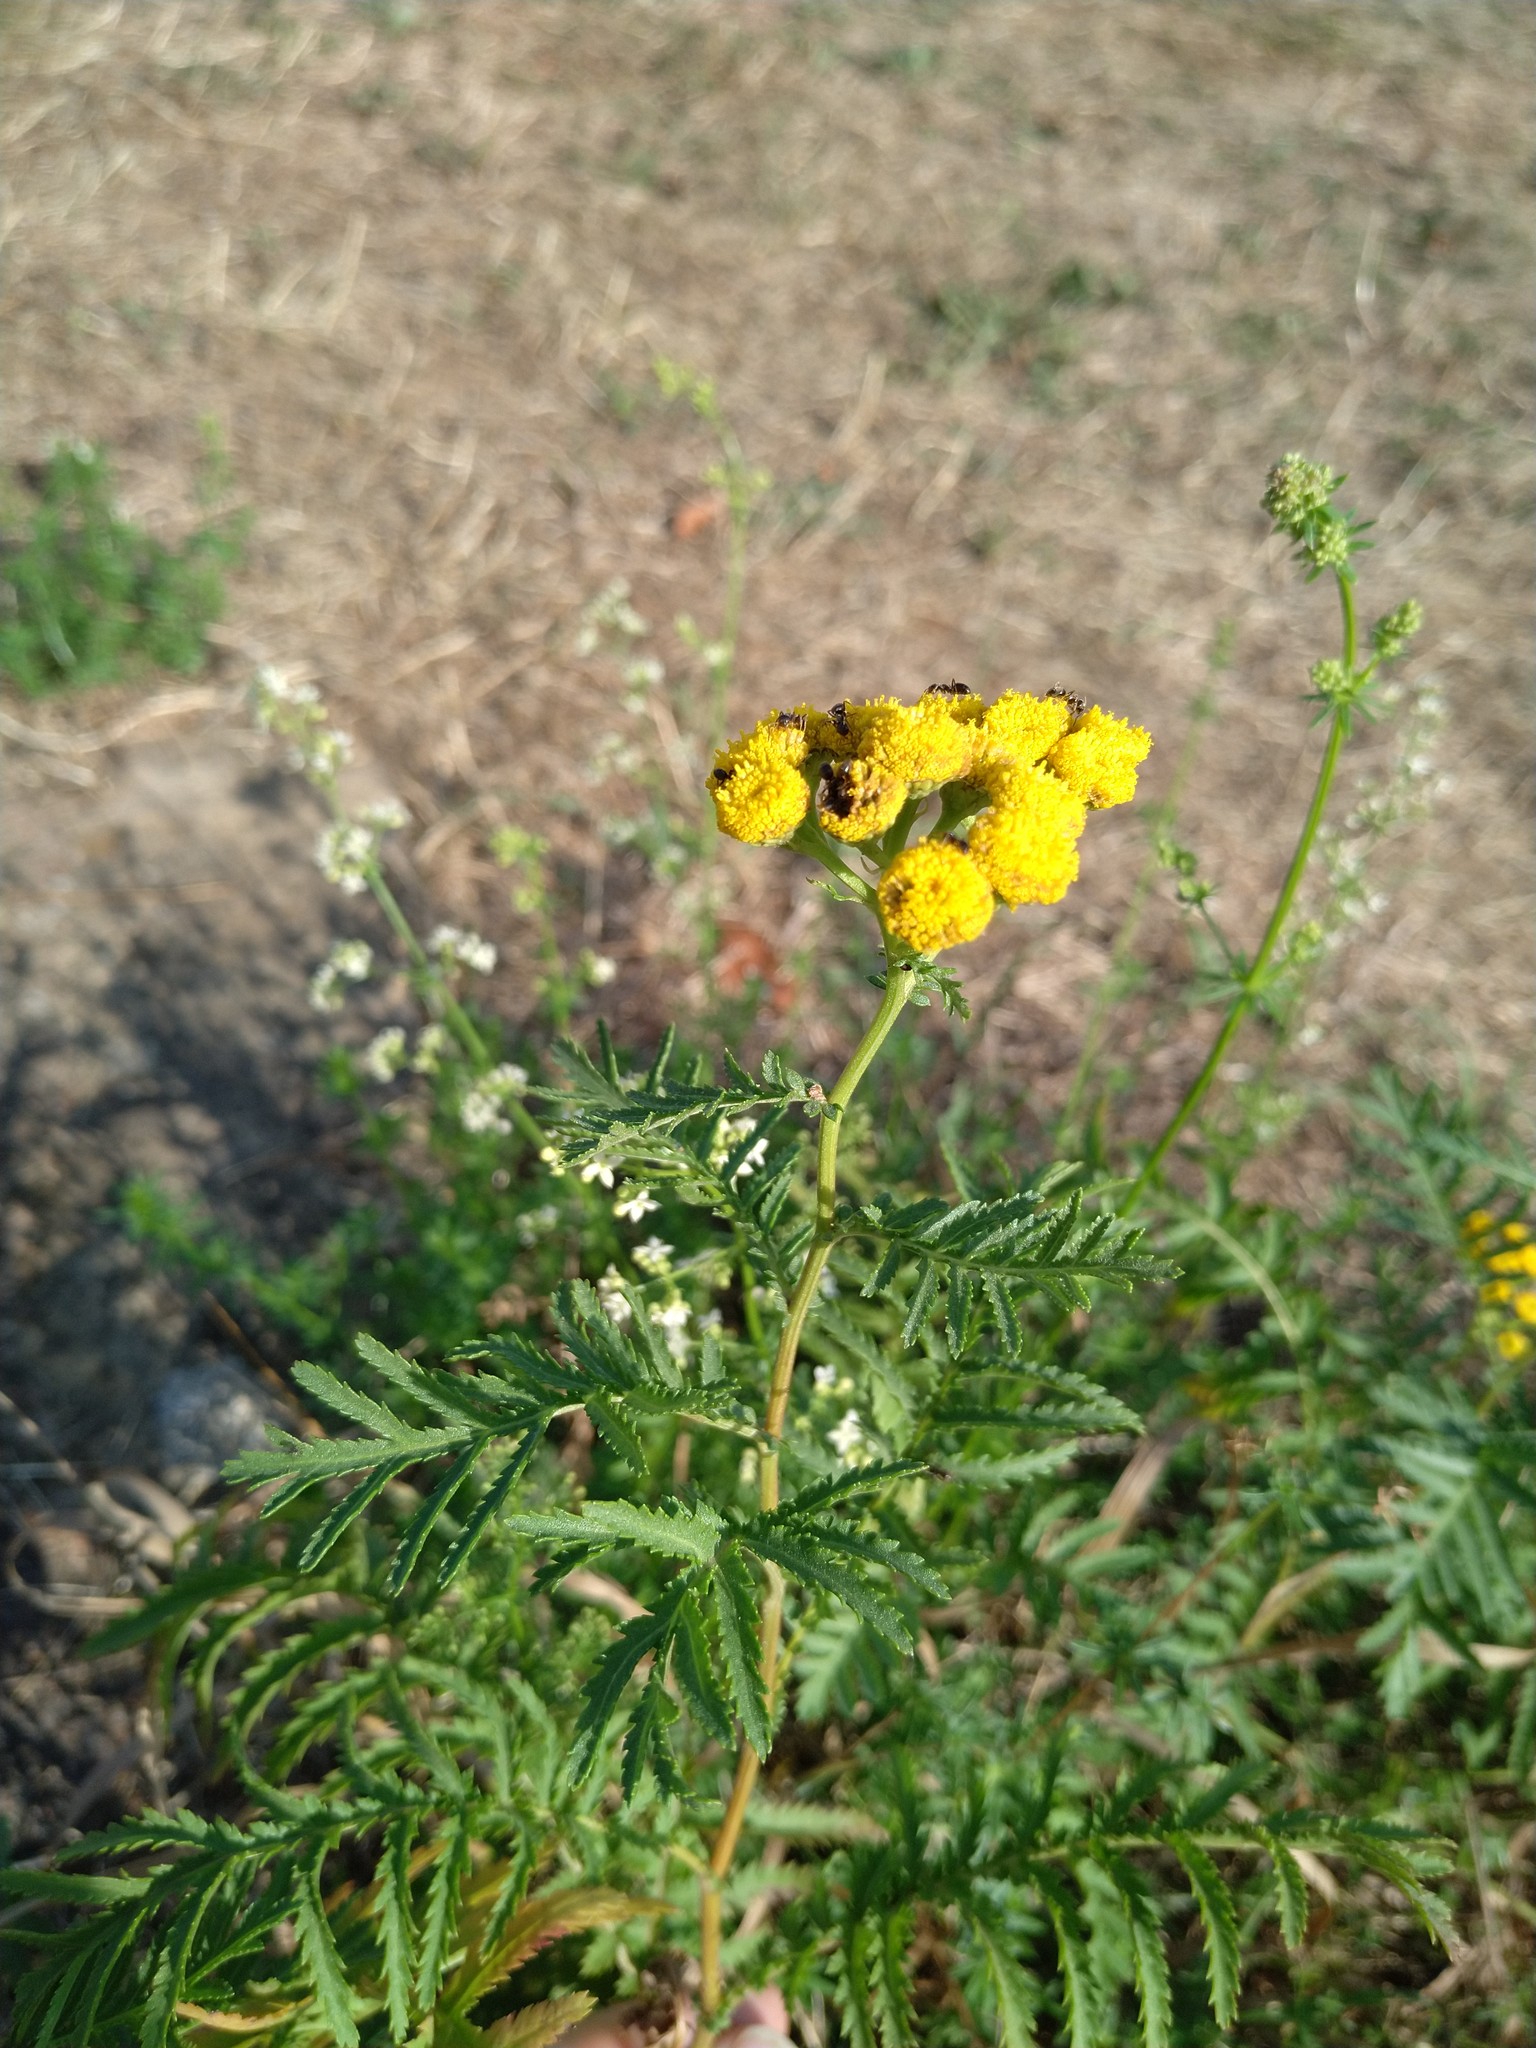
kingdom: Plantae
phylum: Tracheophyta
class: Magnoliopsida
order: Asterales
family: Asteraceae
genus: Tanacetum
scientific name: Tanacetum vulgare
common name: Common tansy
